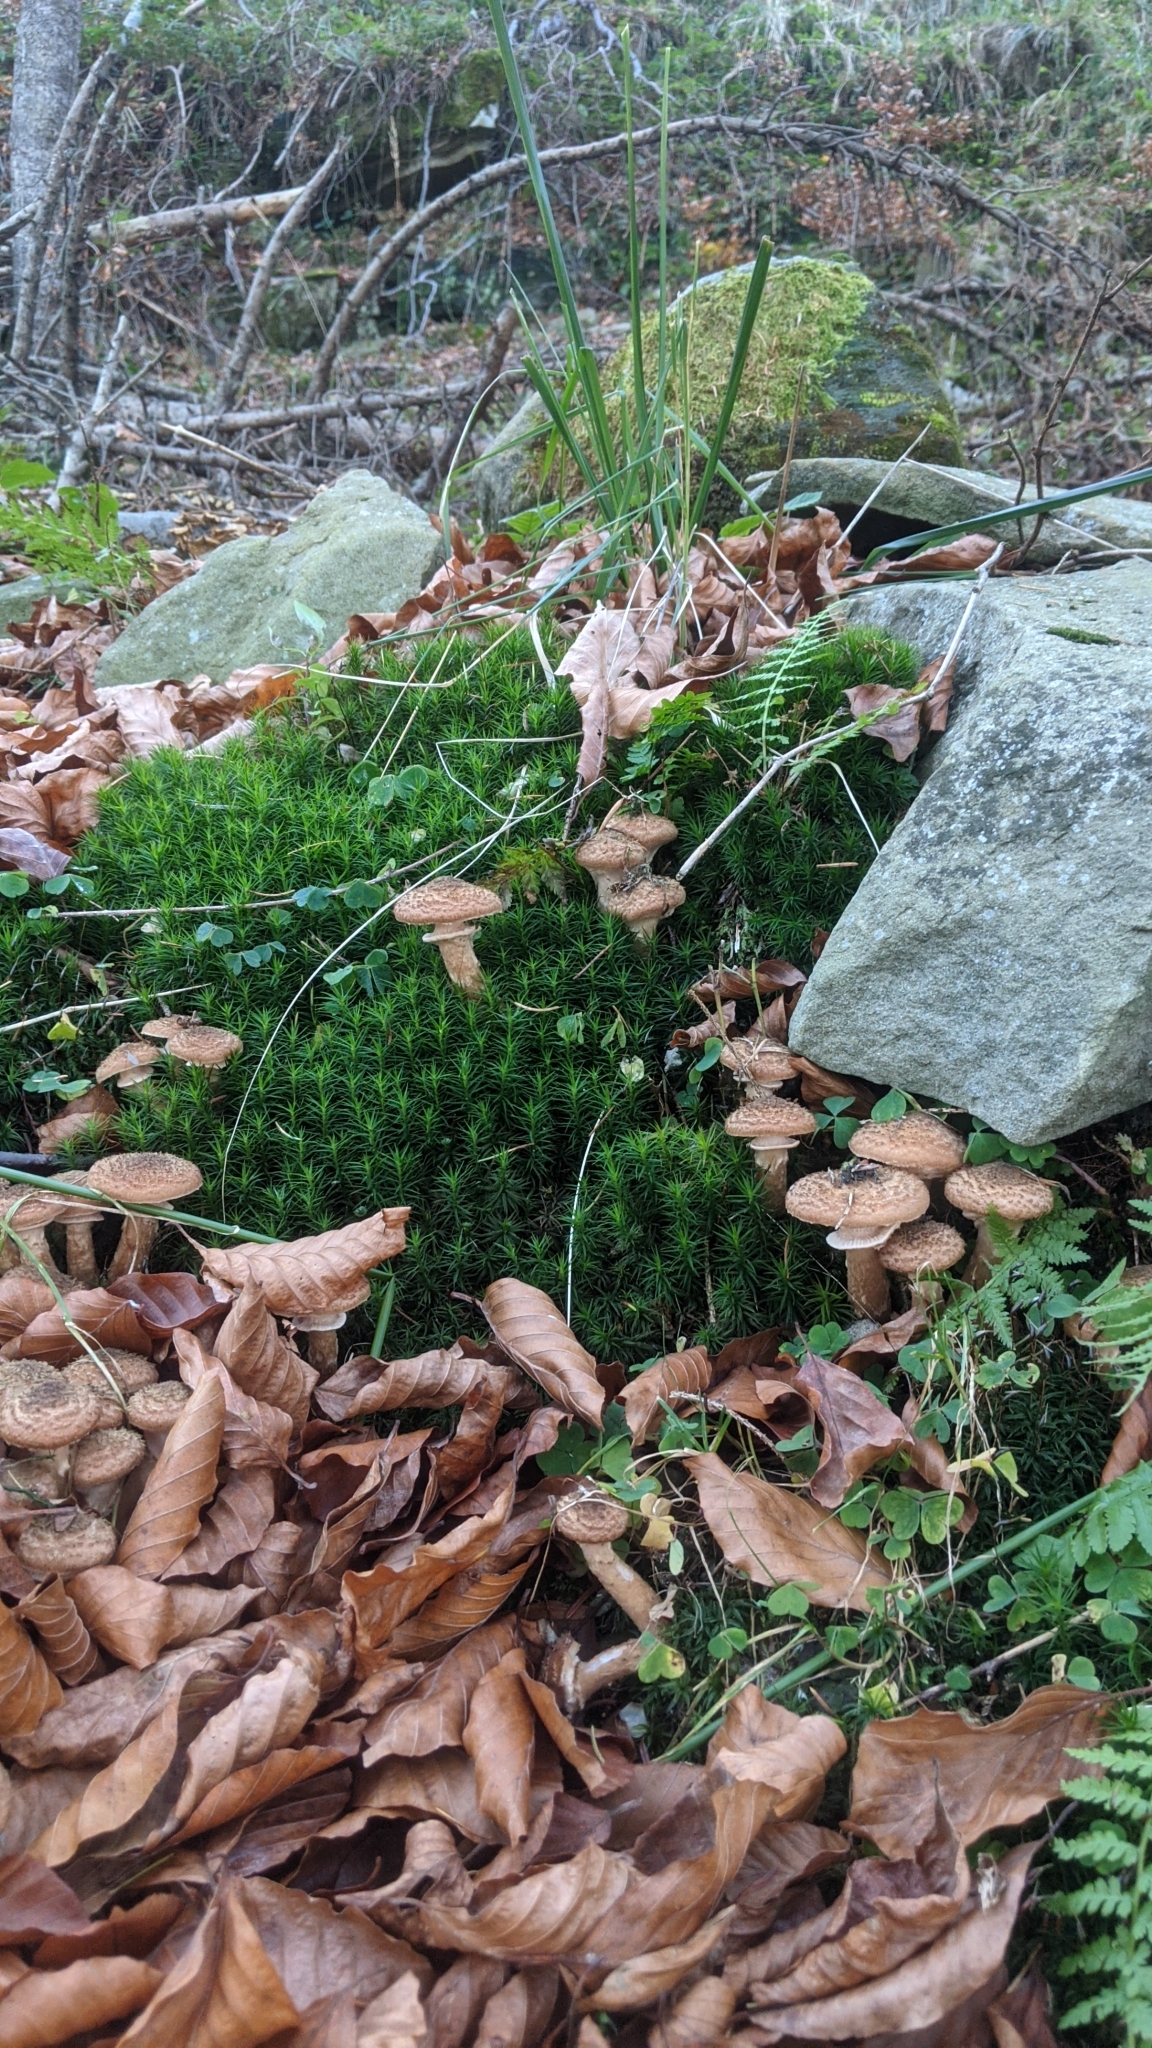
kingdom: Fungi
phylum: Basidiomycota
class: Agaricomycetes
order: Agaricales
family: Physalacriaceae
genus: Armillaria
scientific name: Armillaria ostoyae
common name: Dark honey fungus
